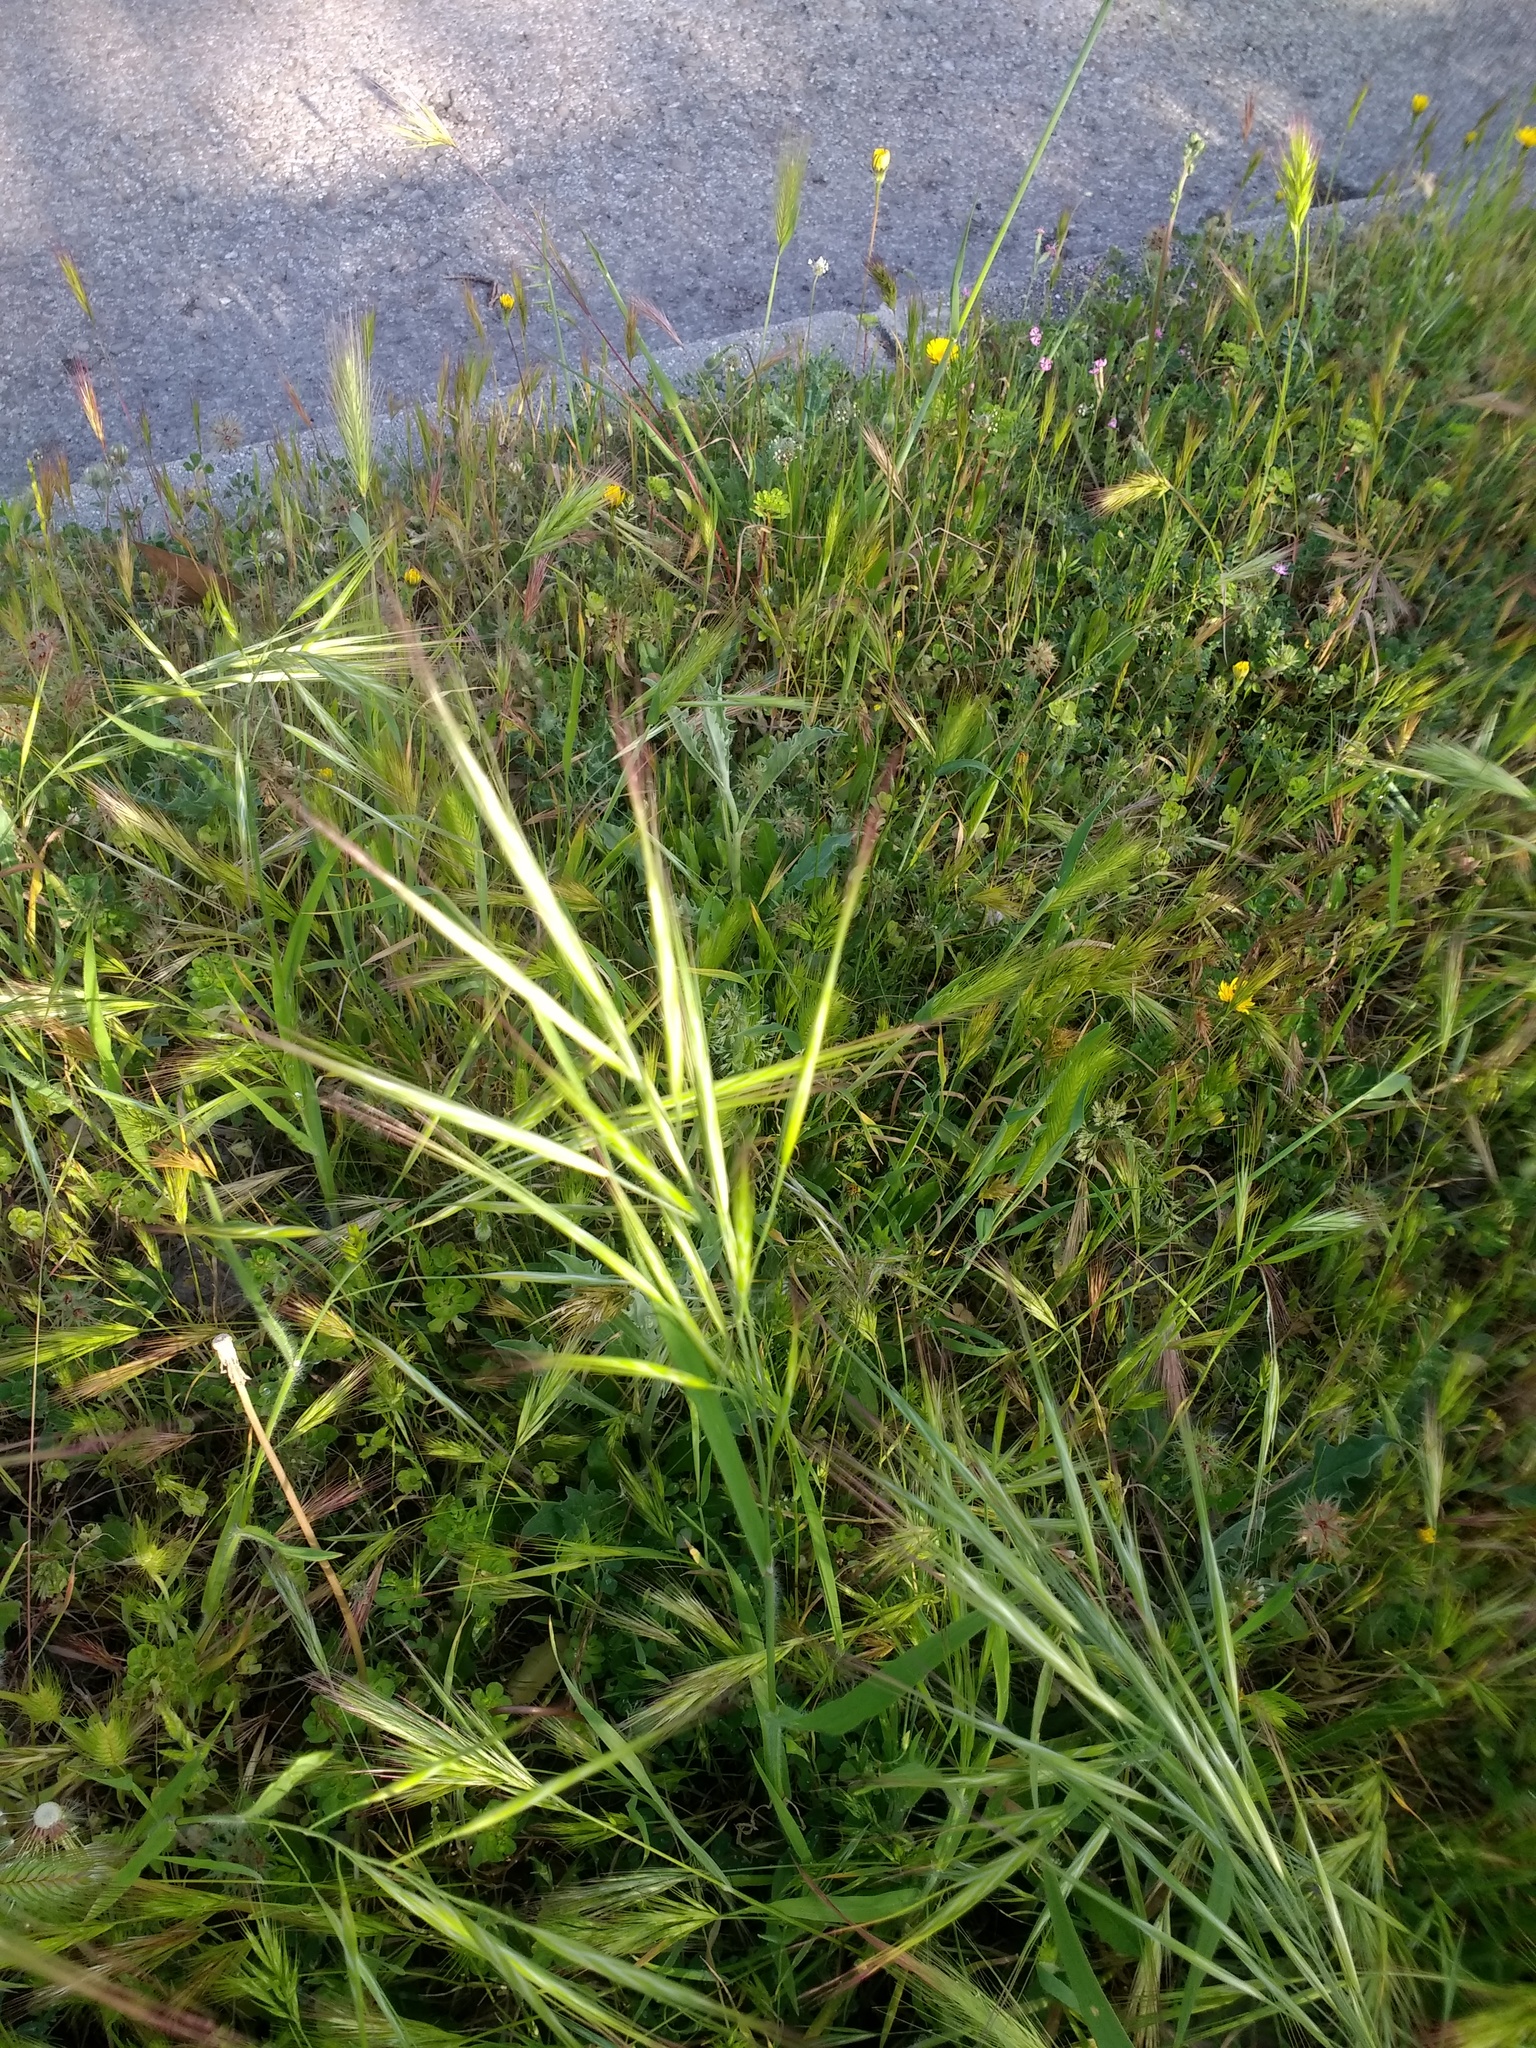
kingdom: Plantae
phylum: Tracheophyta
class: Liliopsida
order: Poales
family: Poaceae
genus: Bromus
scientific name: Bromus diandrus
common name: Ripgut brome
